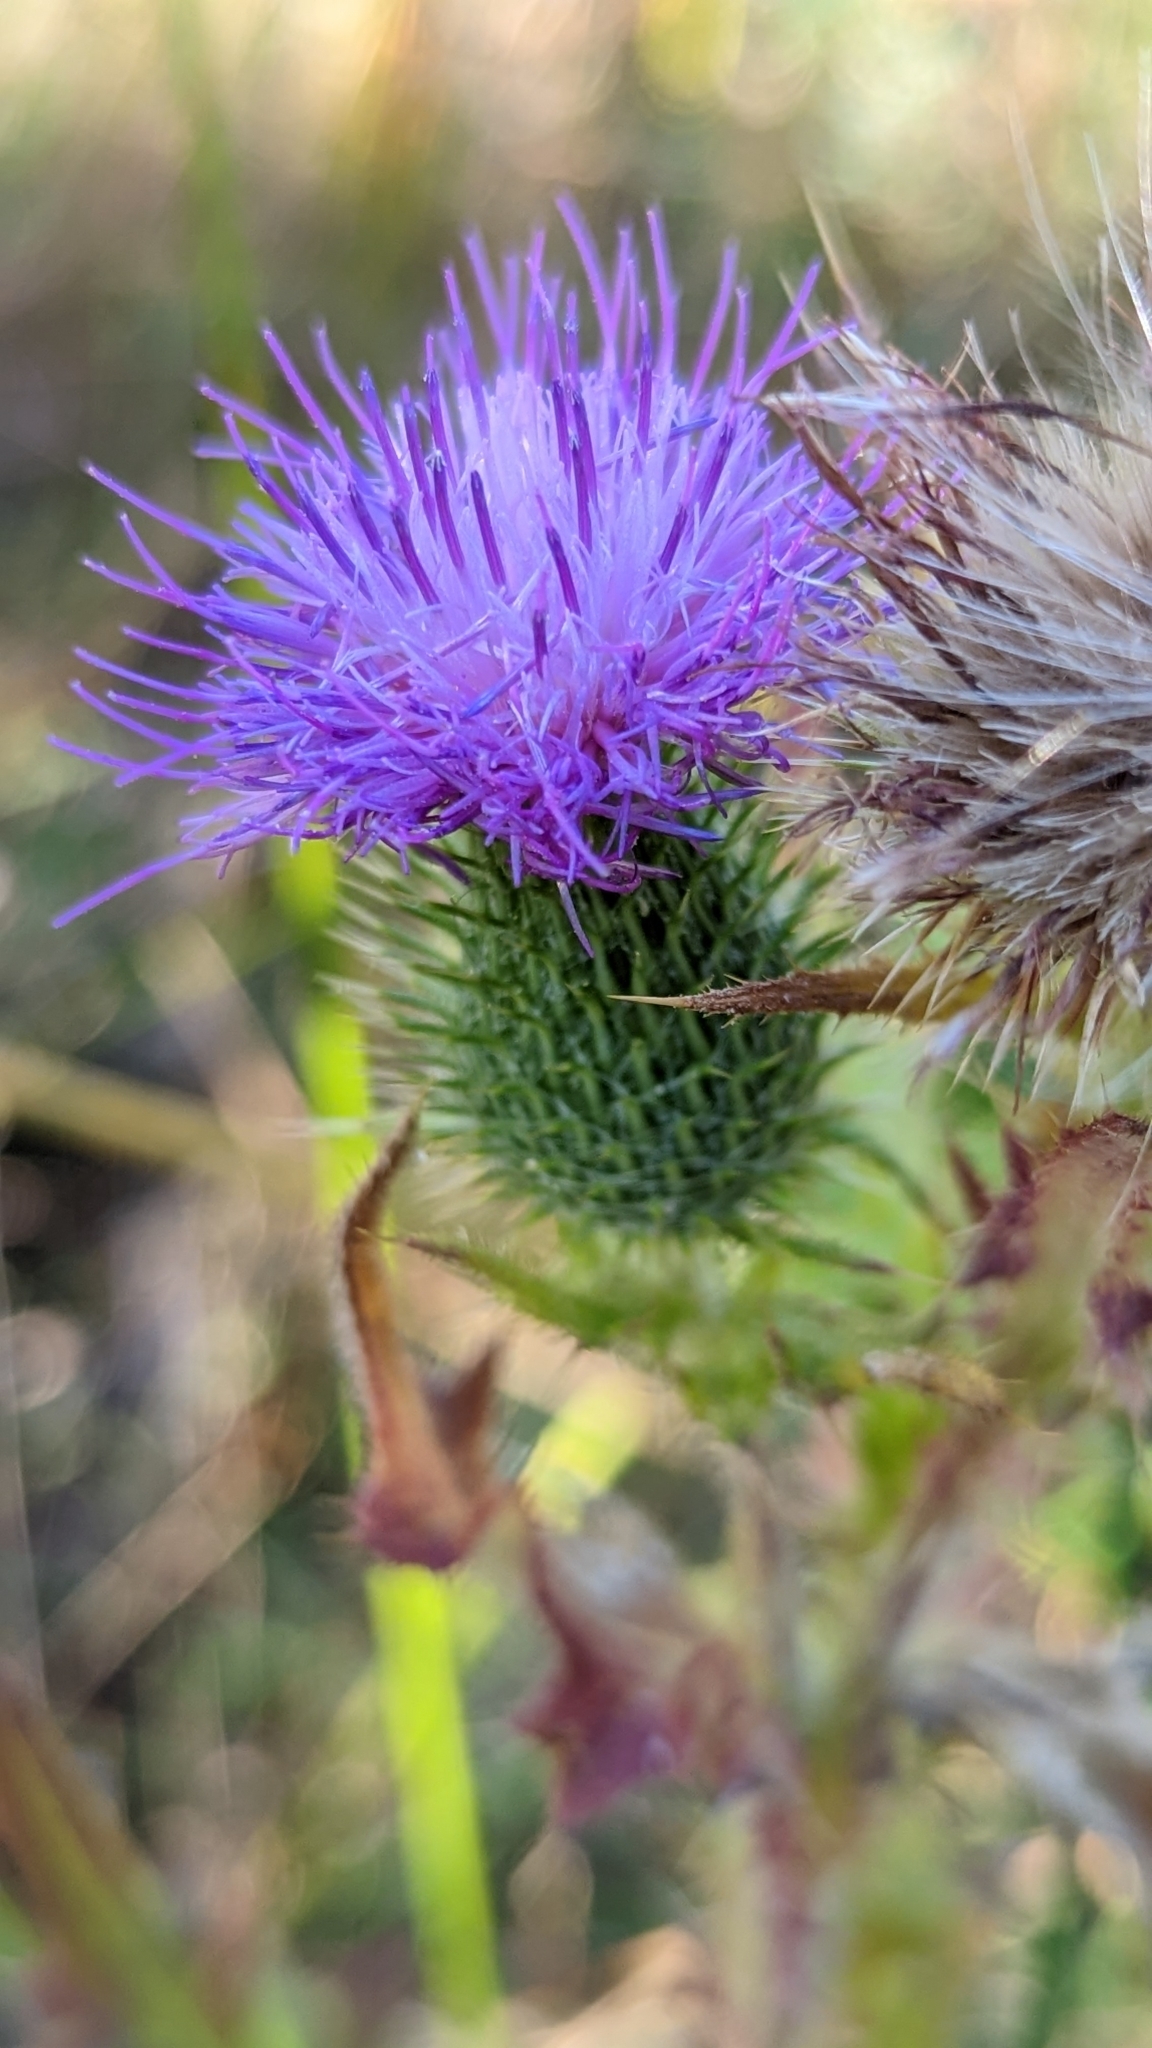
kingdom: Plantae
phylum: Tracheophyta
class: Magnoliopsida
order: Asterales
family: Asteraceae
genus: Cirsium
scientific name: Cirsium vulgare
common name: Bull thistle
